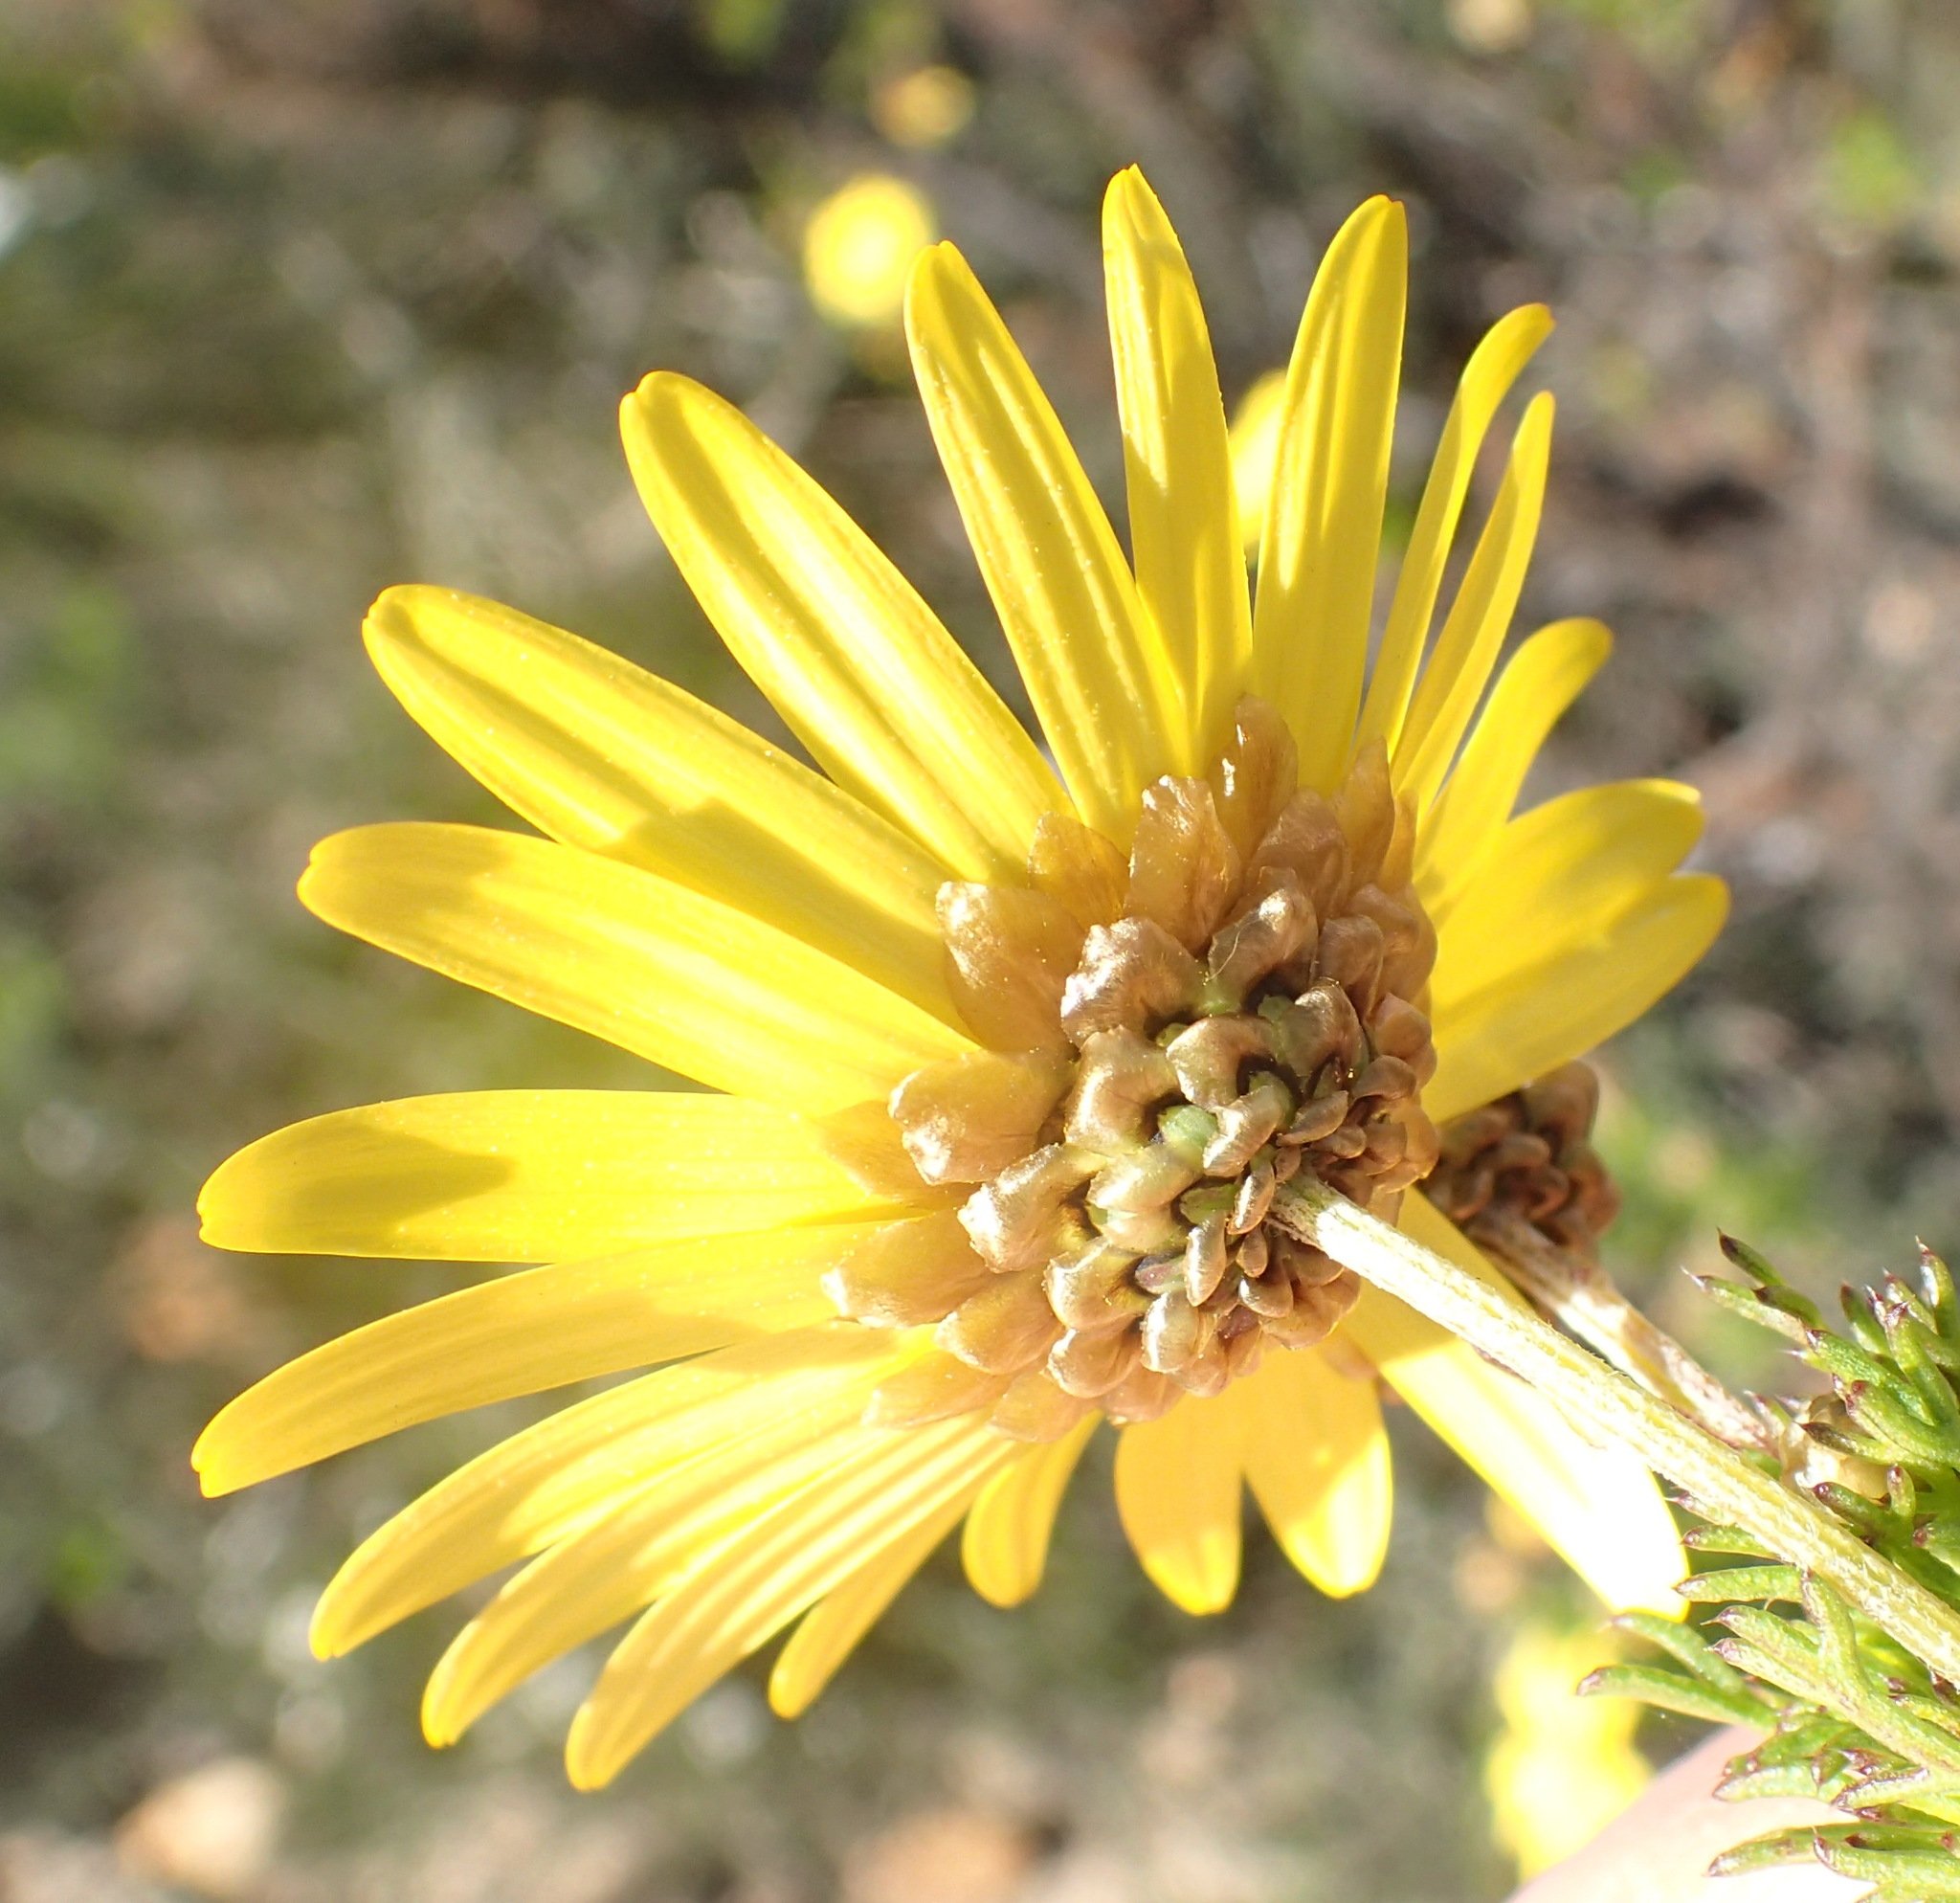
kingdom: Plantae
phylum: Tracheophyta
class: Magnoliopsida
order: Asterales
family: Asteraceae
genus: Ursinia
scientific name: Ursinia scariosa
